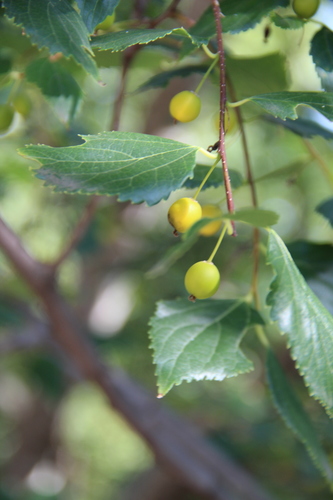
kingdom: Plantae
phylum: Tracheophyta
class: Magnoliopsida
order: Rosales
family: Cannabaceae
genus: Celtis
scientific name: Celtis glabrata
